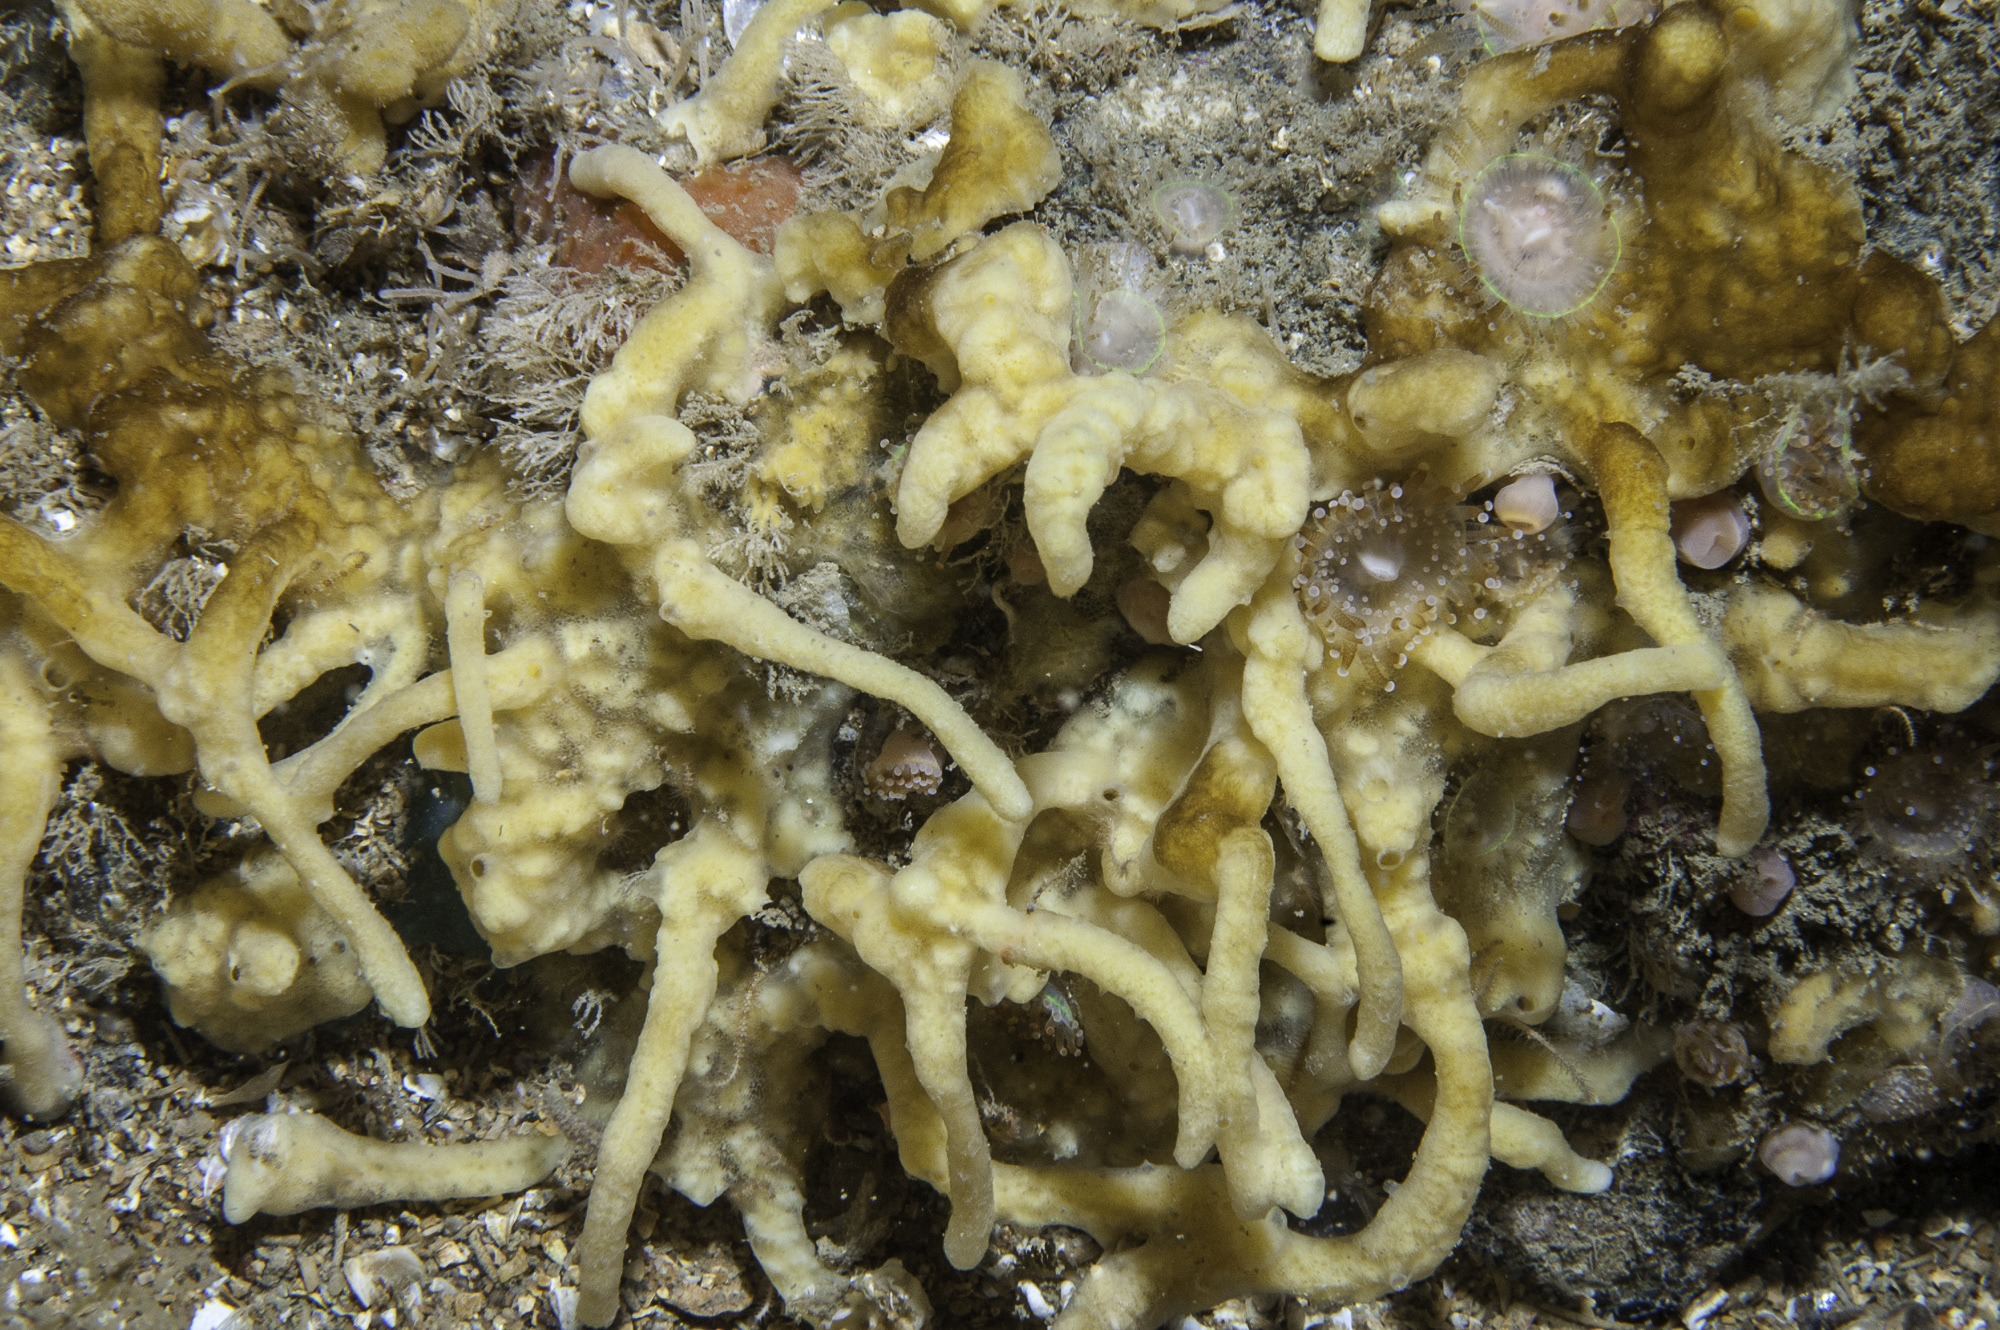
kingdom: Animalia
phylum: Porifera
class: Demospongiae
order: Poecilosclerida
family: Acarnidae
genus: Iophon
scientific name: Iophon nigricans
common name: Yellow-fingered horny sponge
